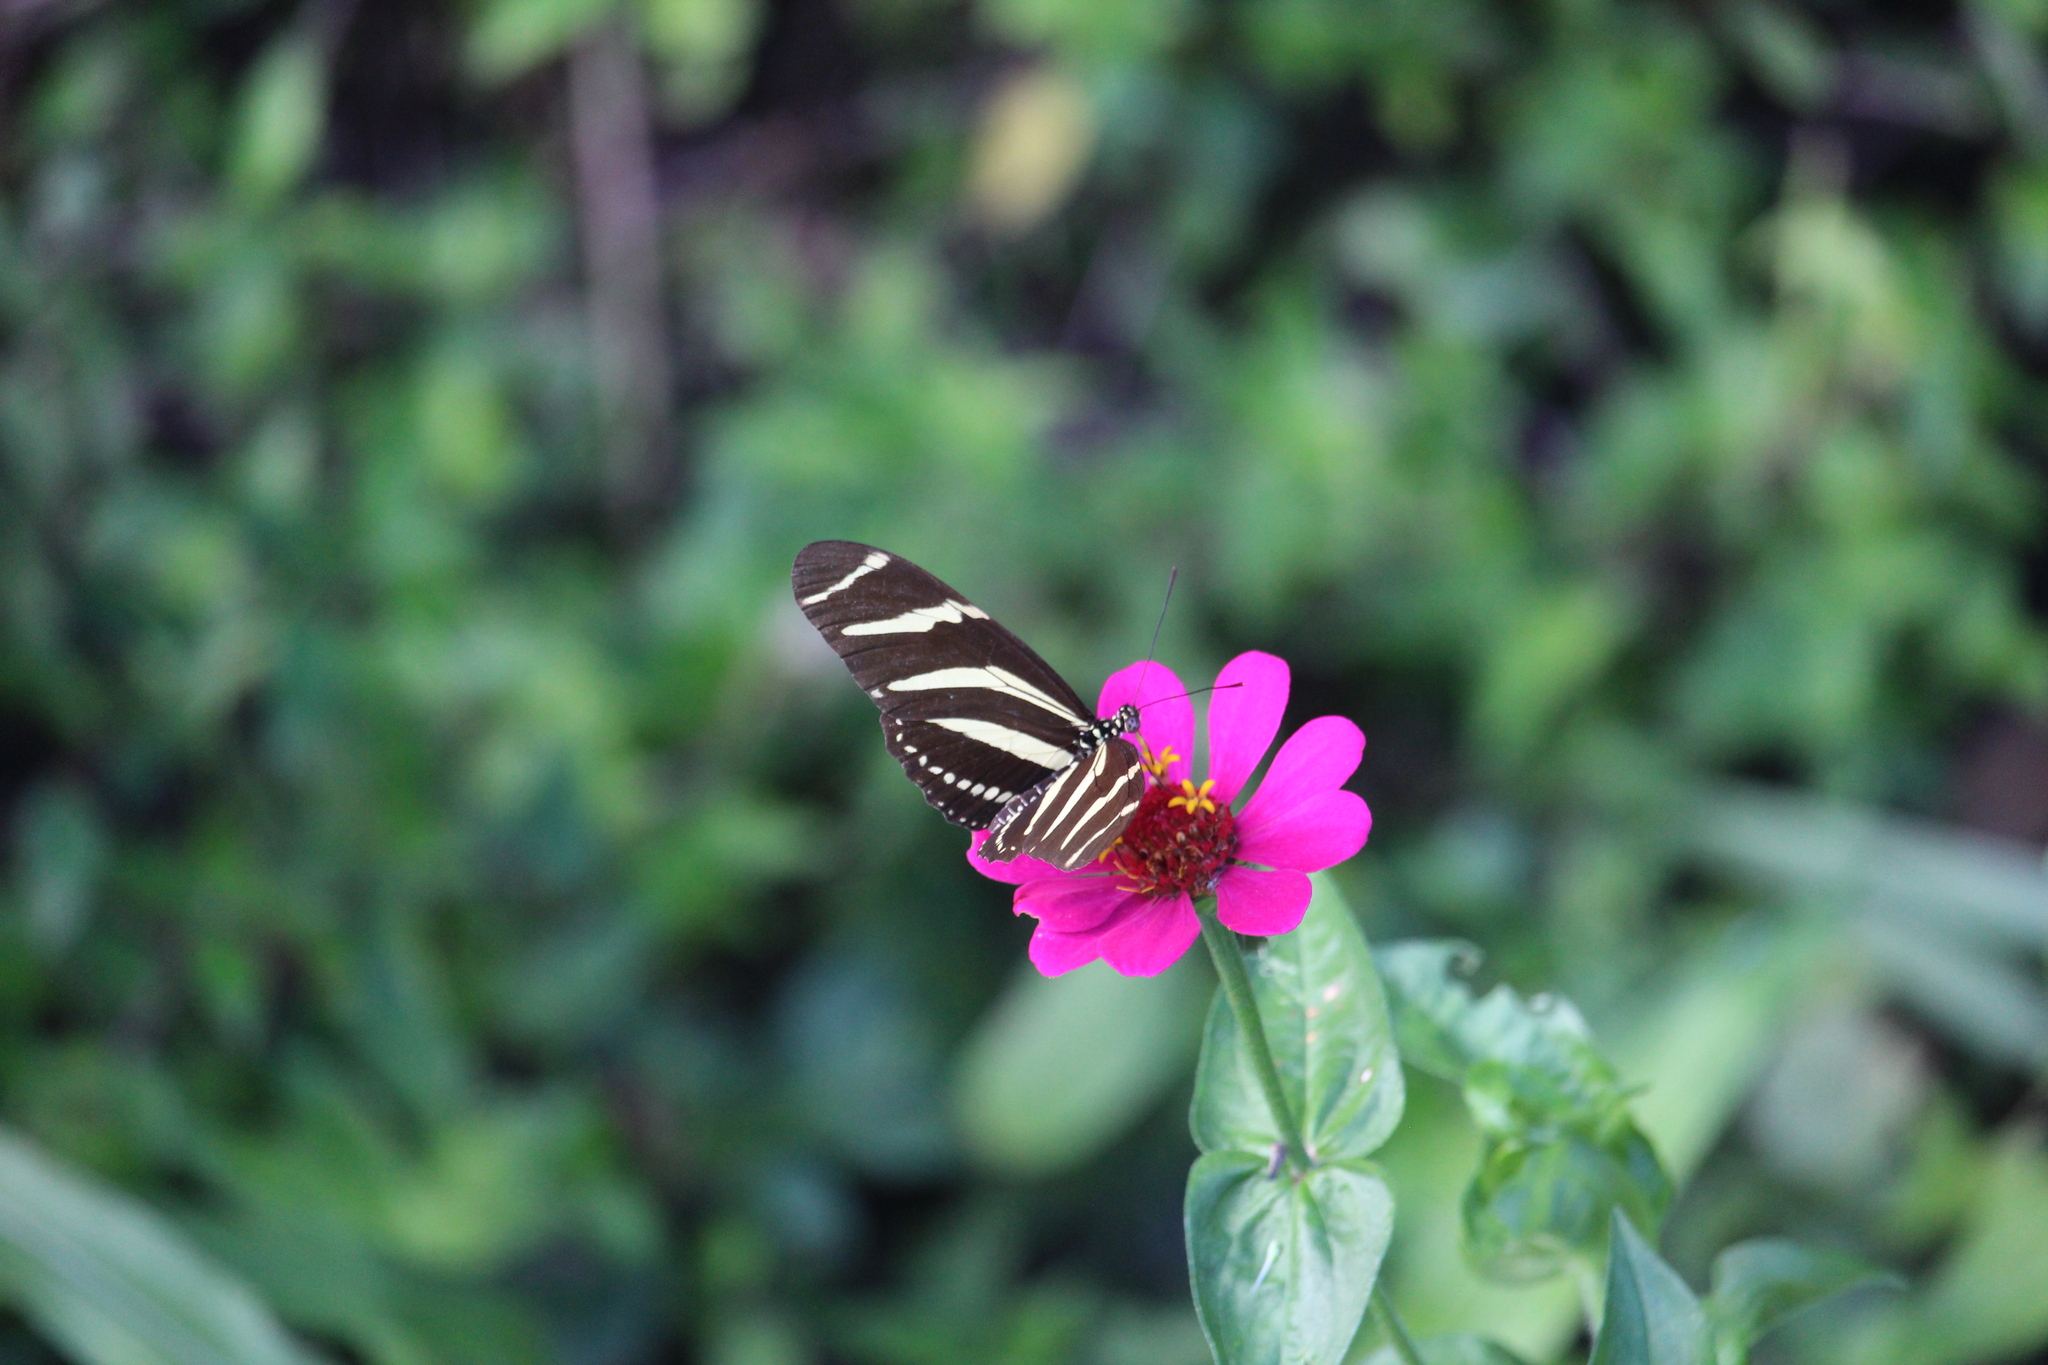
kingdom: Animalia
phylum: Arthropoda
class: Insecta
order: Lepidoptera
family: Nymphalidae
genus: Heliconius
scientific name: Heliconius charithonia
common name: Zebra long wing
